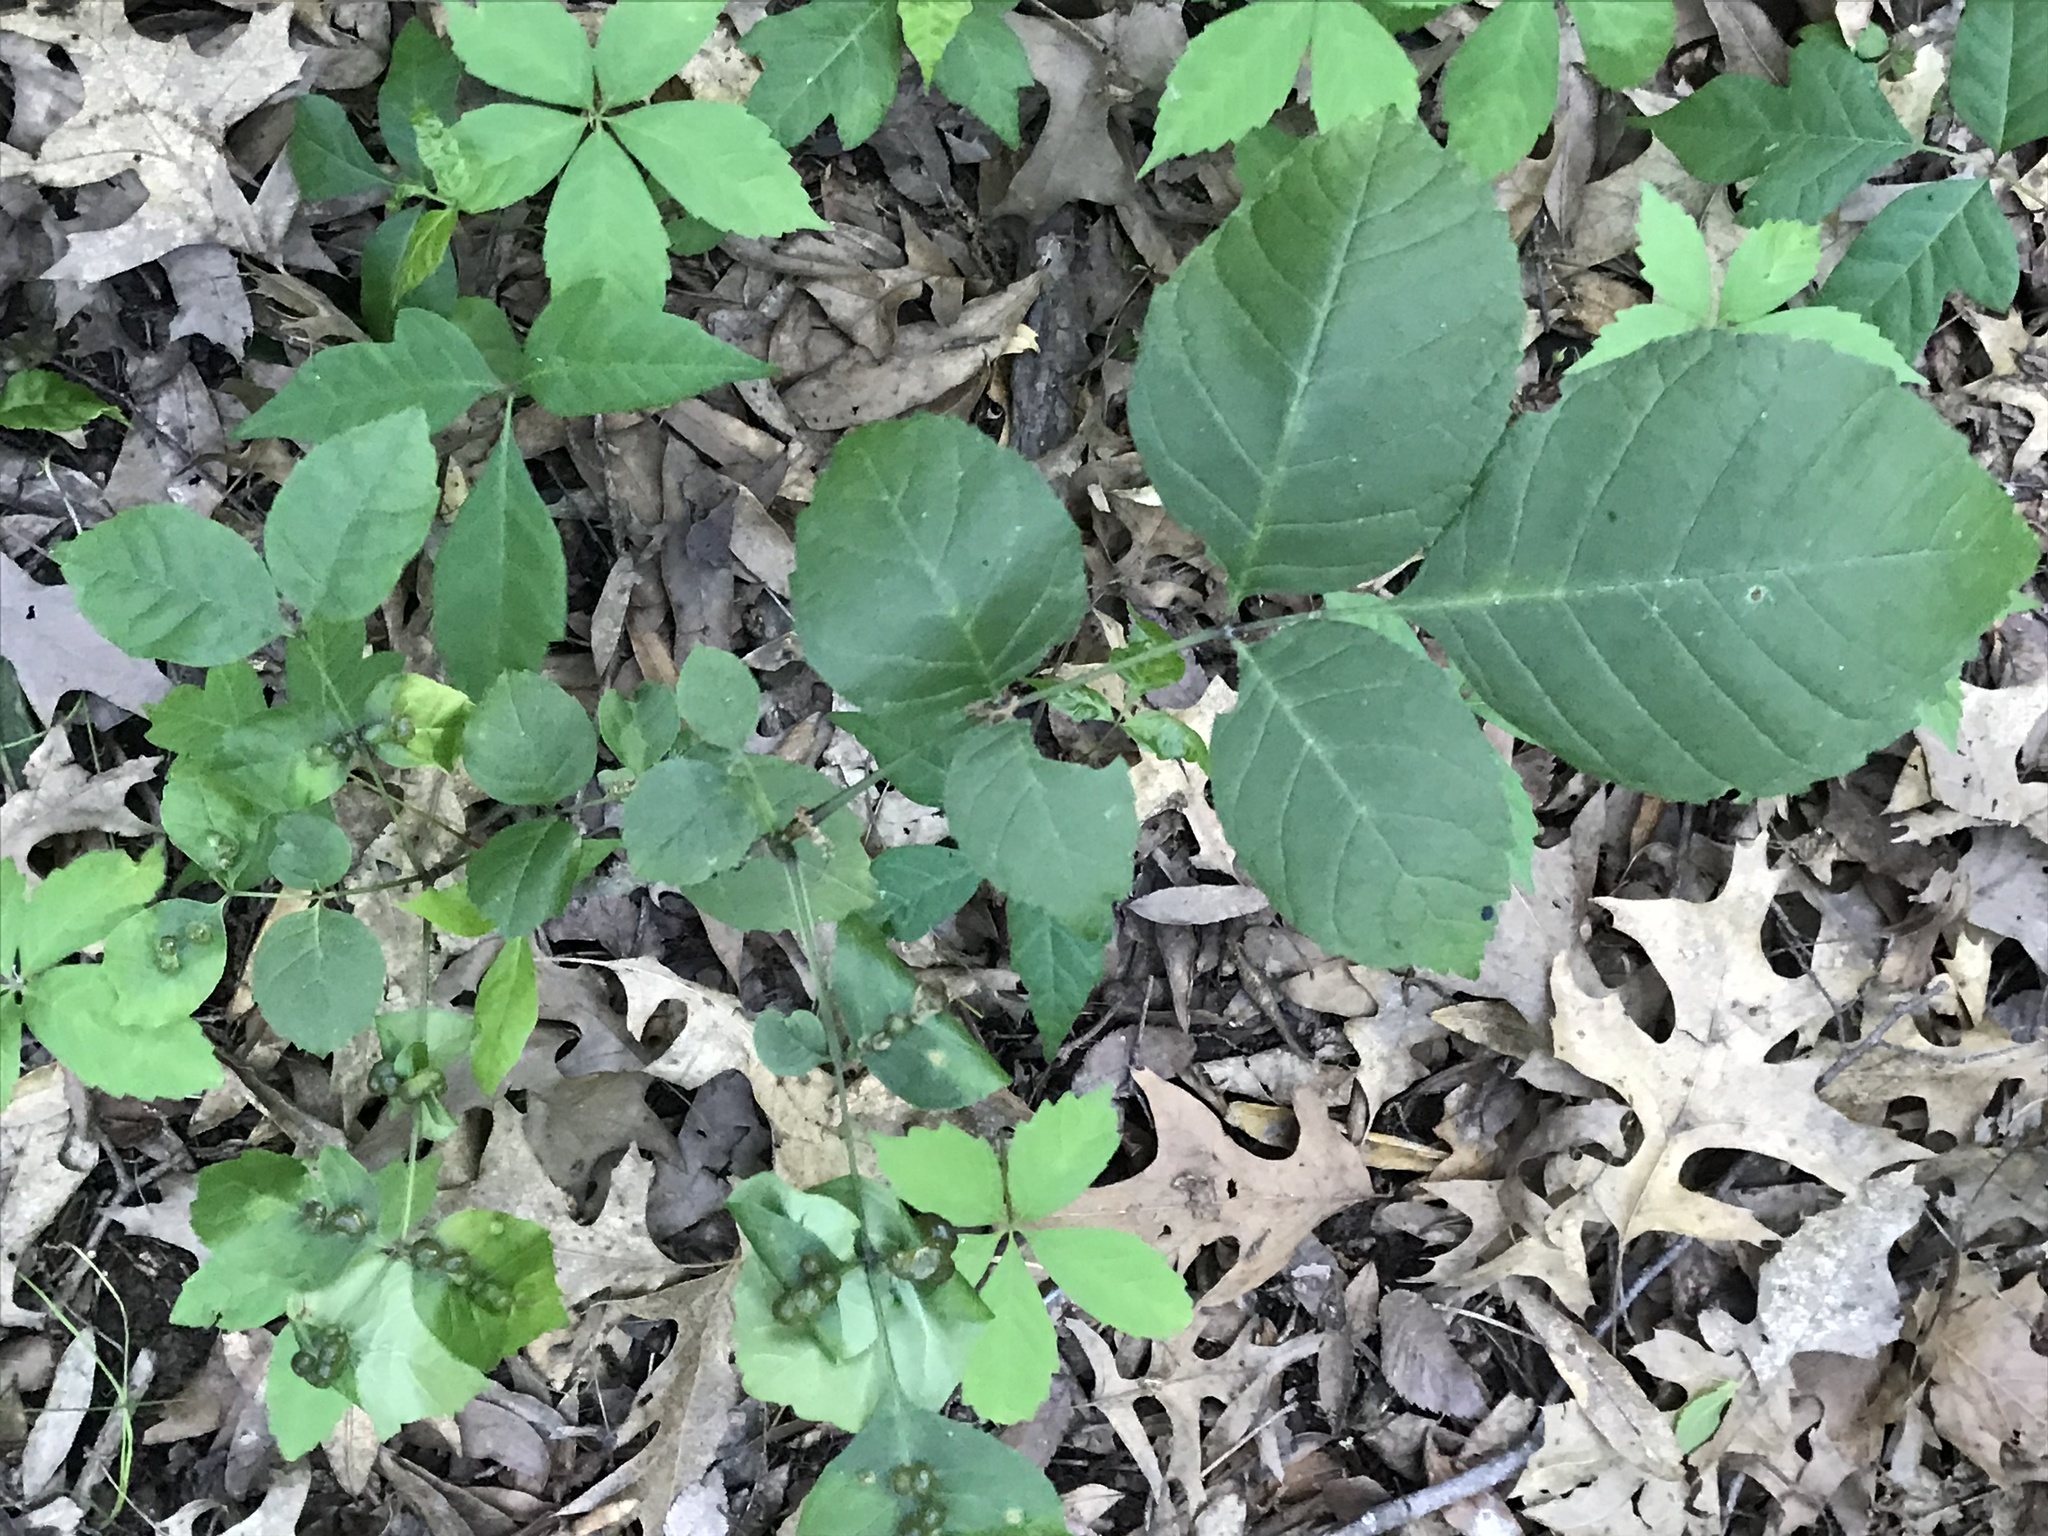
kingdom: Animalia
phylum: Arthropoda
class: Insecta
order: Diptera
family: Cecidomyiidae
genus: Dasineura
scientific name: Dasineura pellex
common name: Ash bullet gall midge
